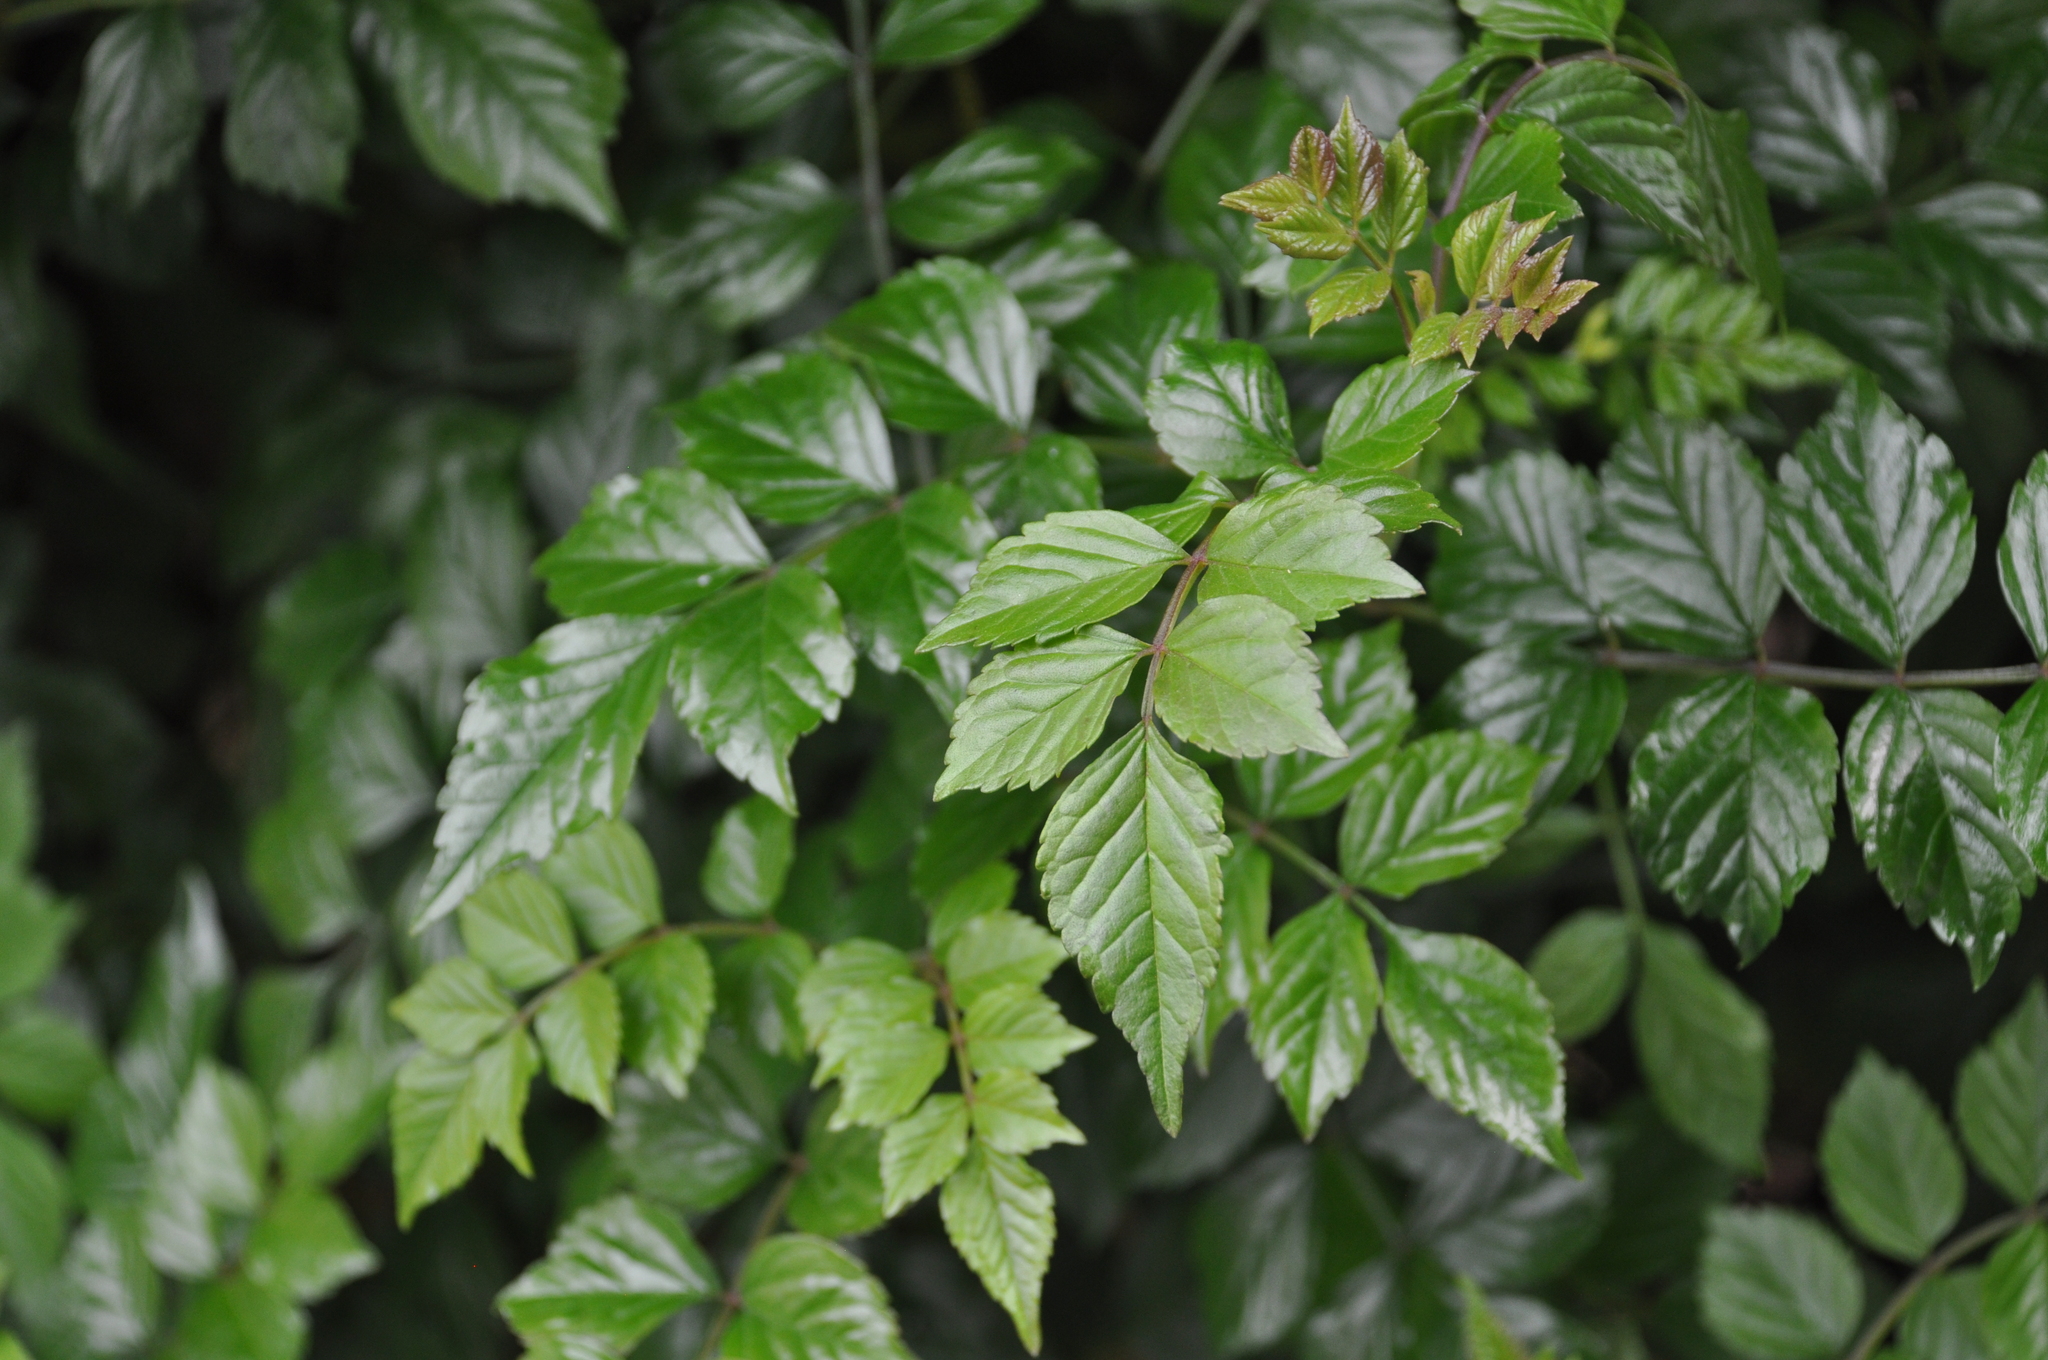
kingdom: Plantae
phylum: Tracheophyta
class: Magnoliopsida
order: Lamiales
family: Bignoniaceae
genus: Tecomaria
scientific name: Tecomaria capensis
